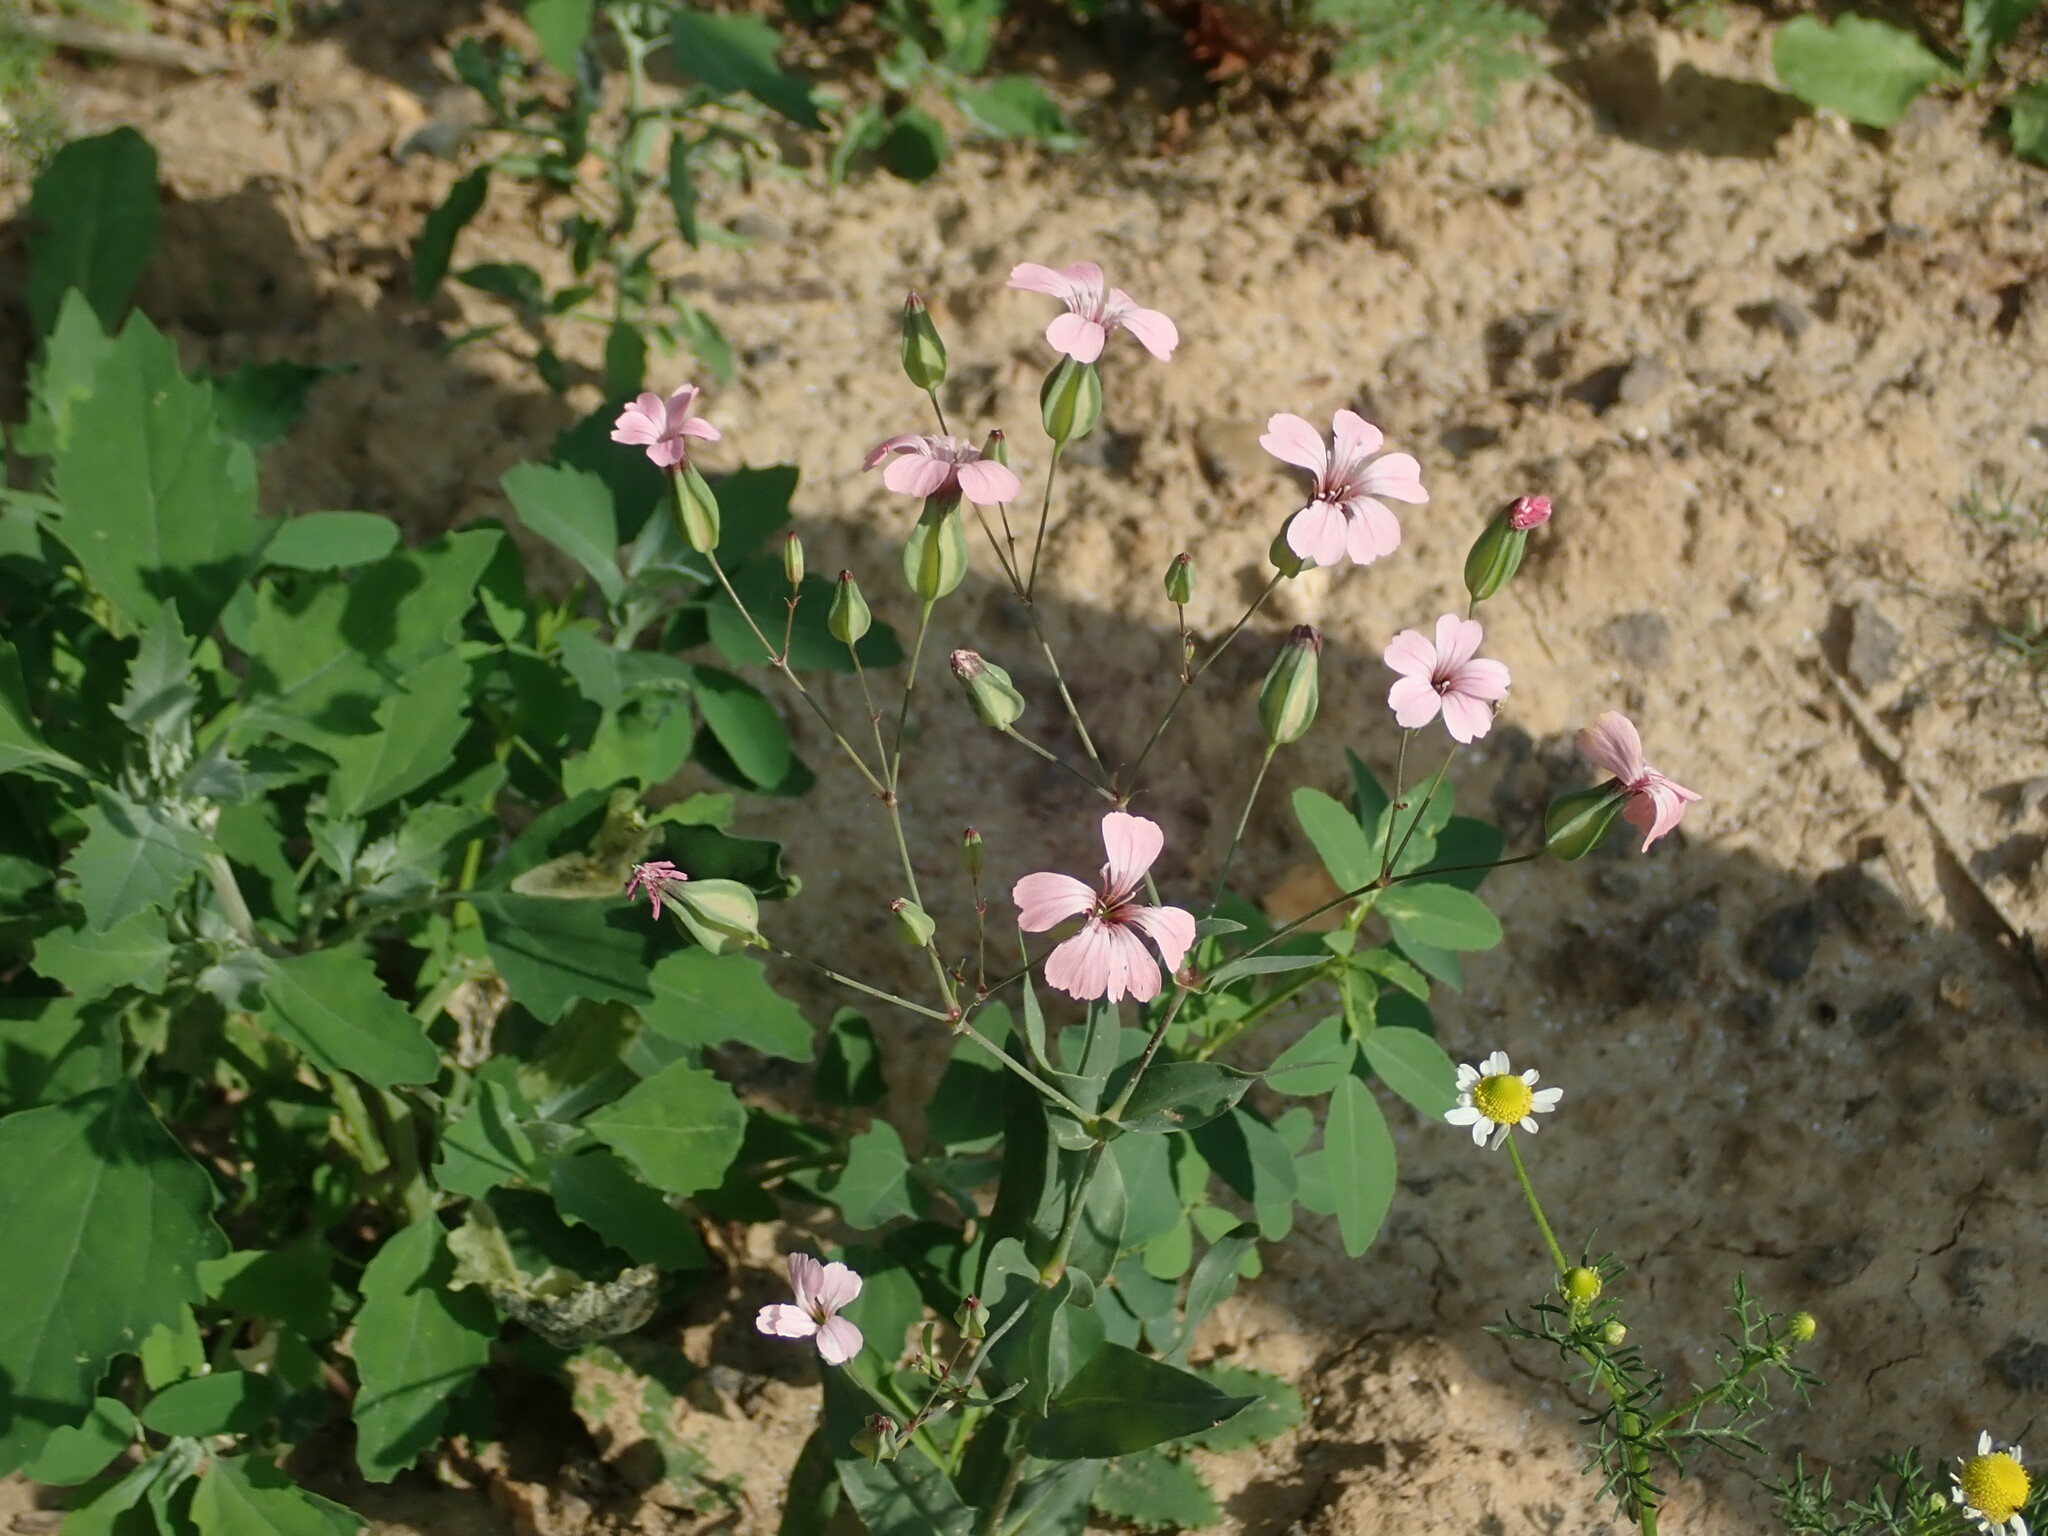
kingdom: Plantae
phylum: Tracheophyta
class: Magnoliopsida
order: Caryophyllales
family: Caryophyllaceae
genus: Gypsophila
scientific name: Gypsophila vaccaria
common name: Cow soapwort
